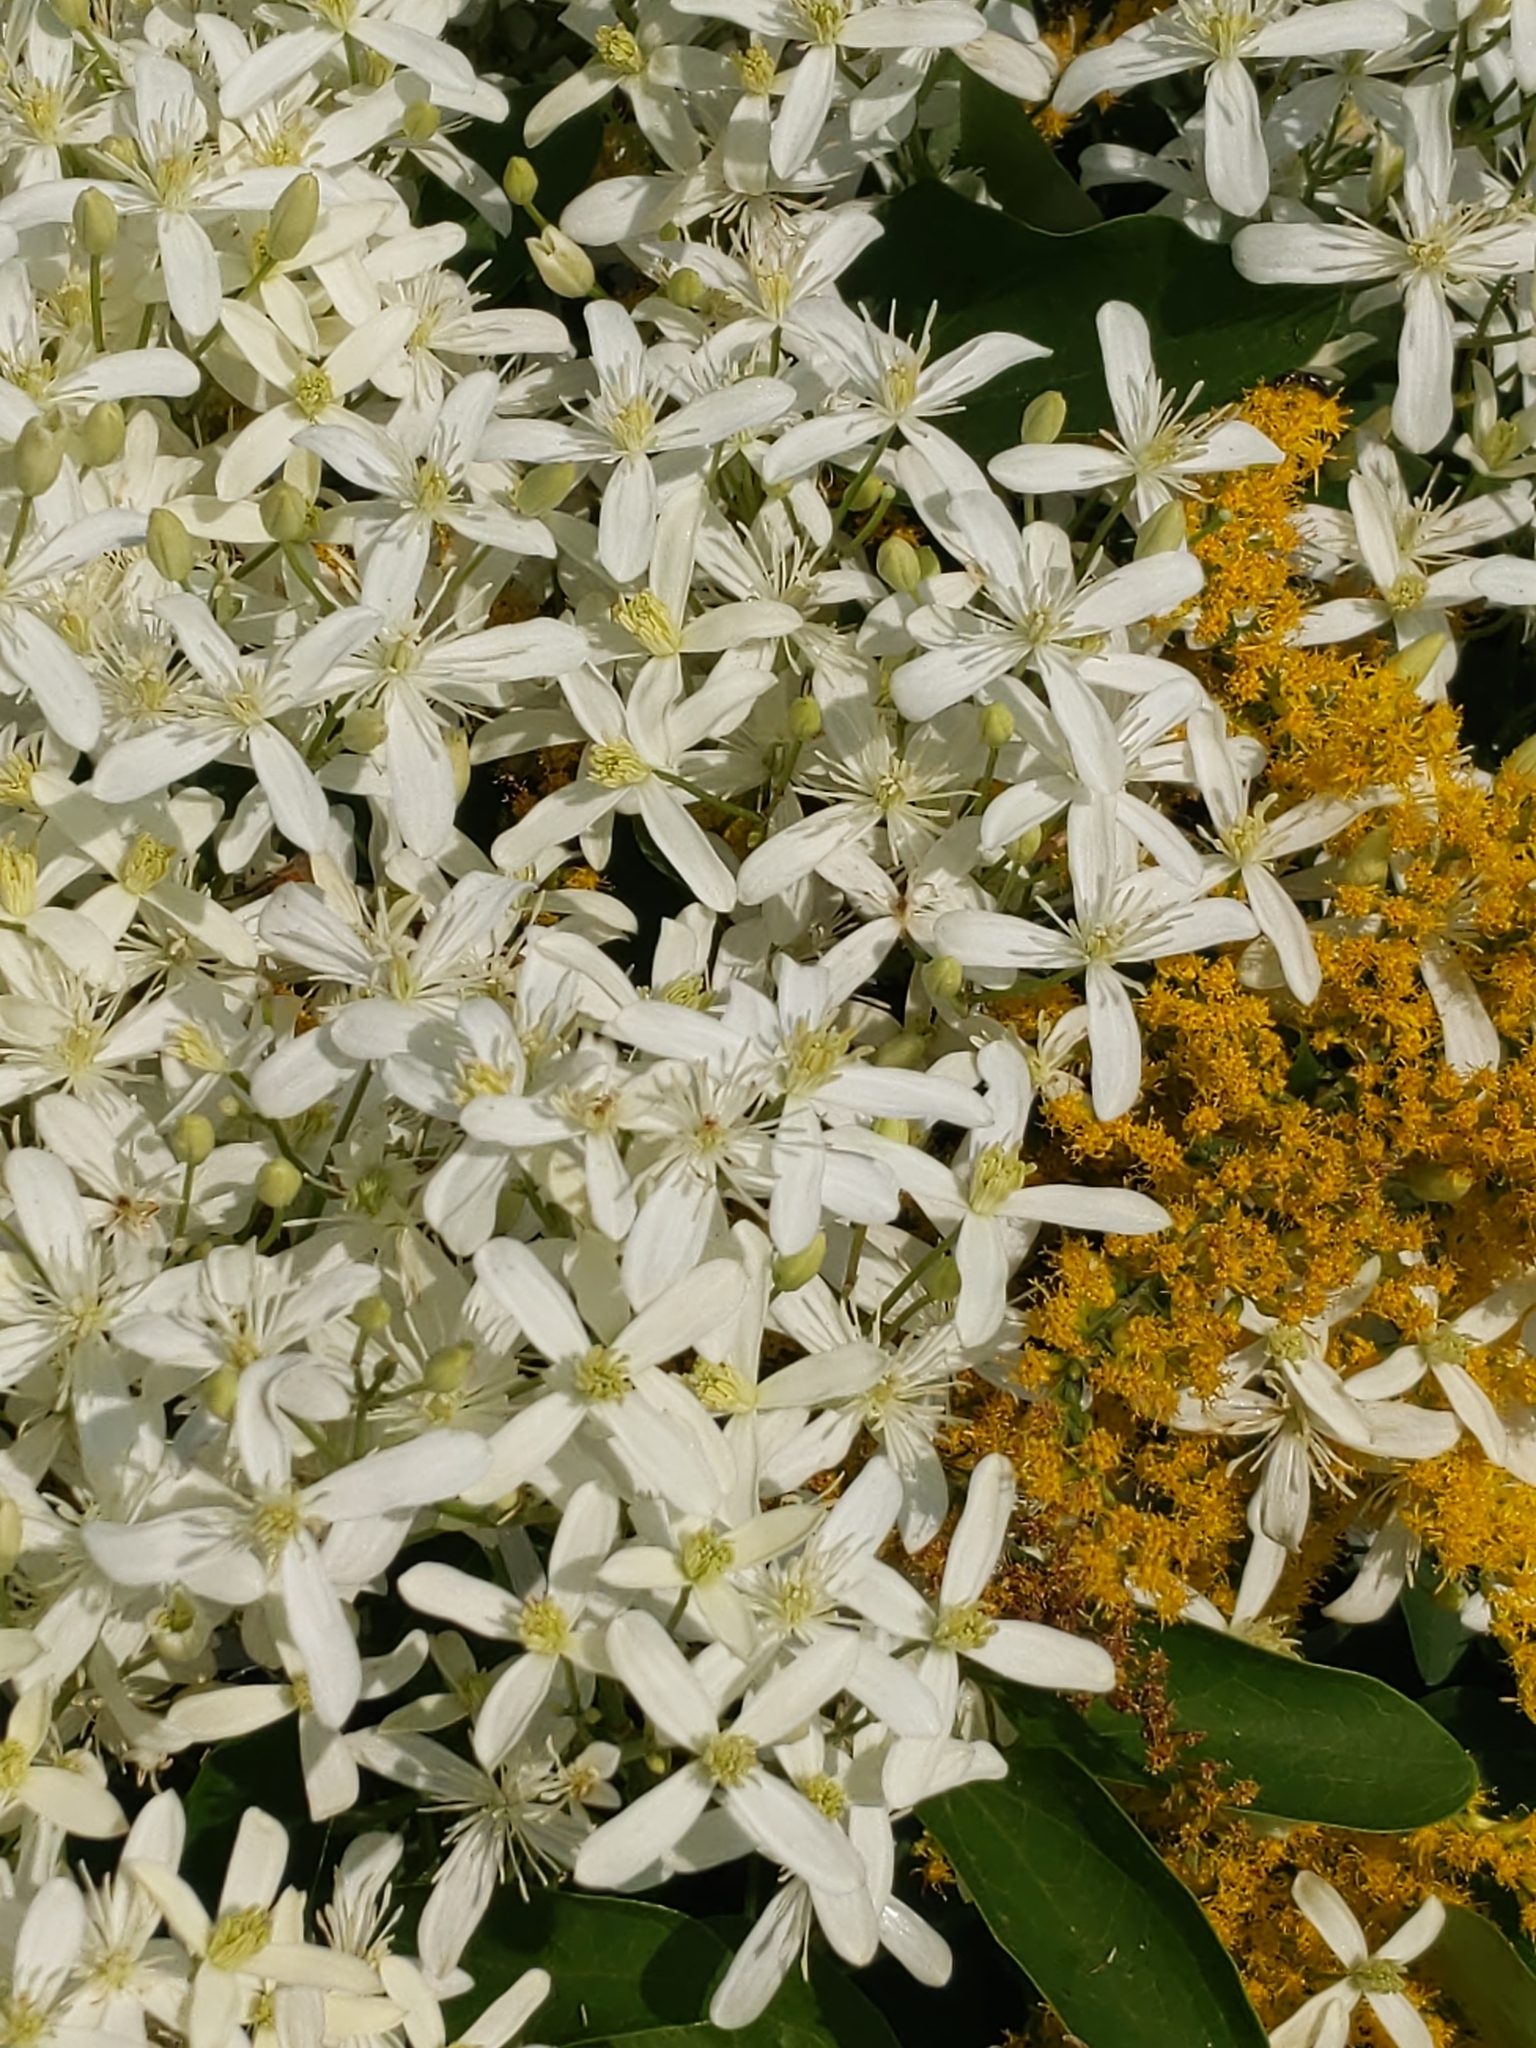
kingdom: Plantae
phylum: Tracheophyta
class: Magnoliopsida
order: Ranunculales
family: Ranunculaceae
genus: Clematis
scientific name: Clematis terniflora
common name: Sweet autumn clematis
